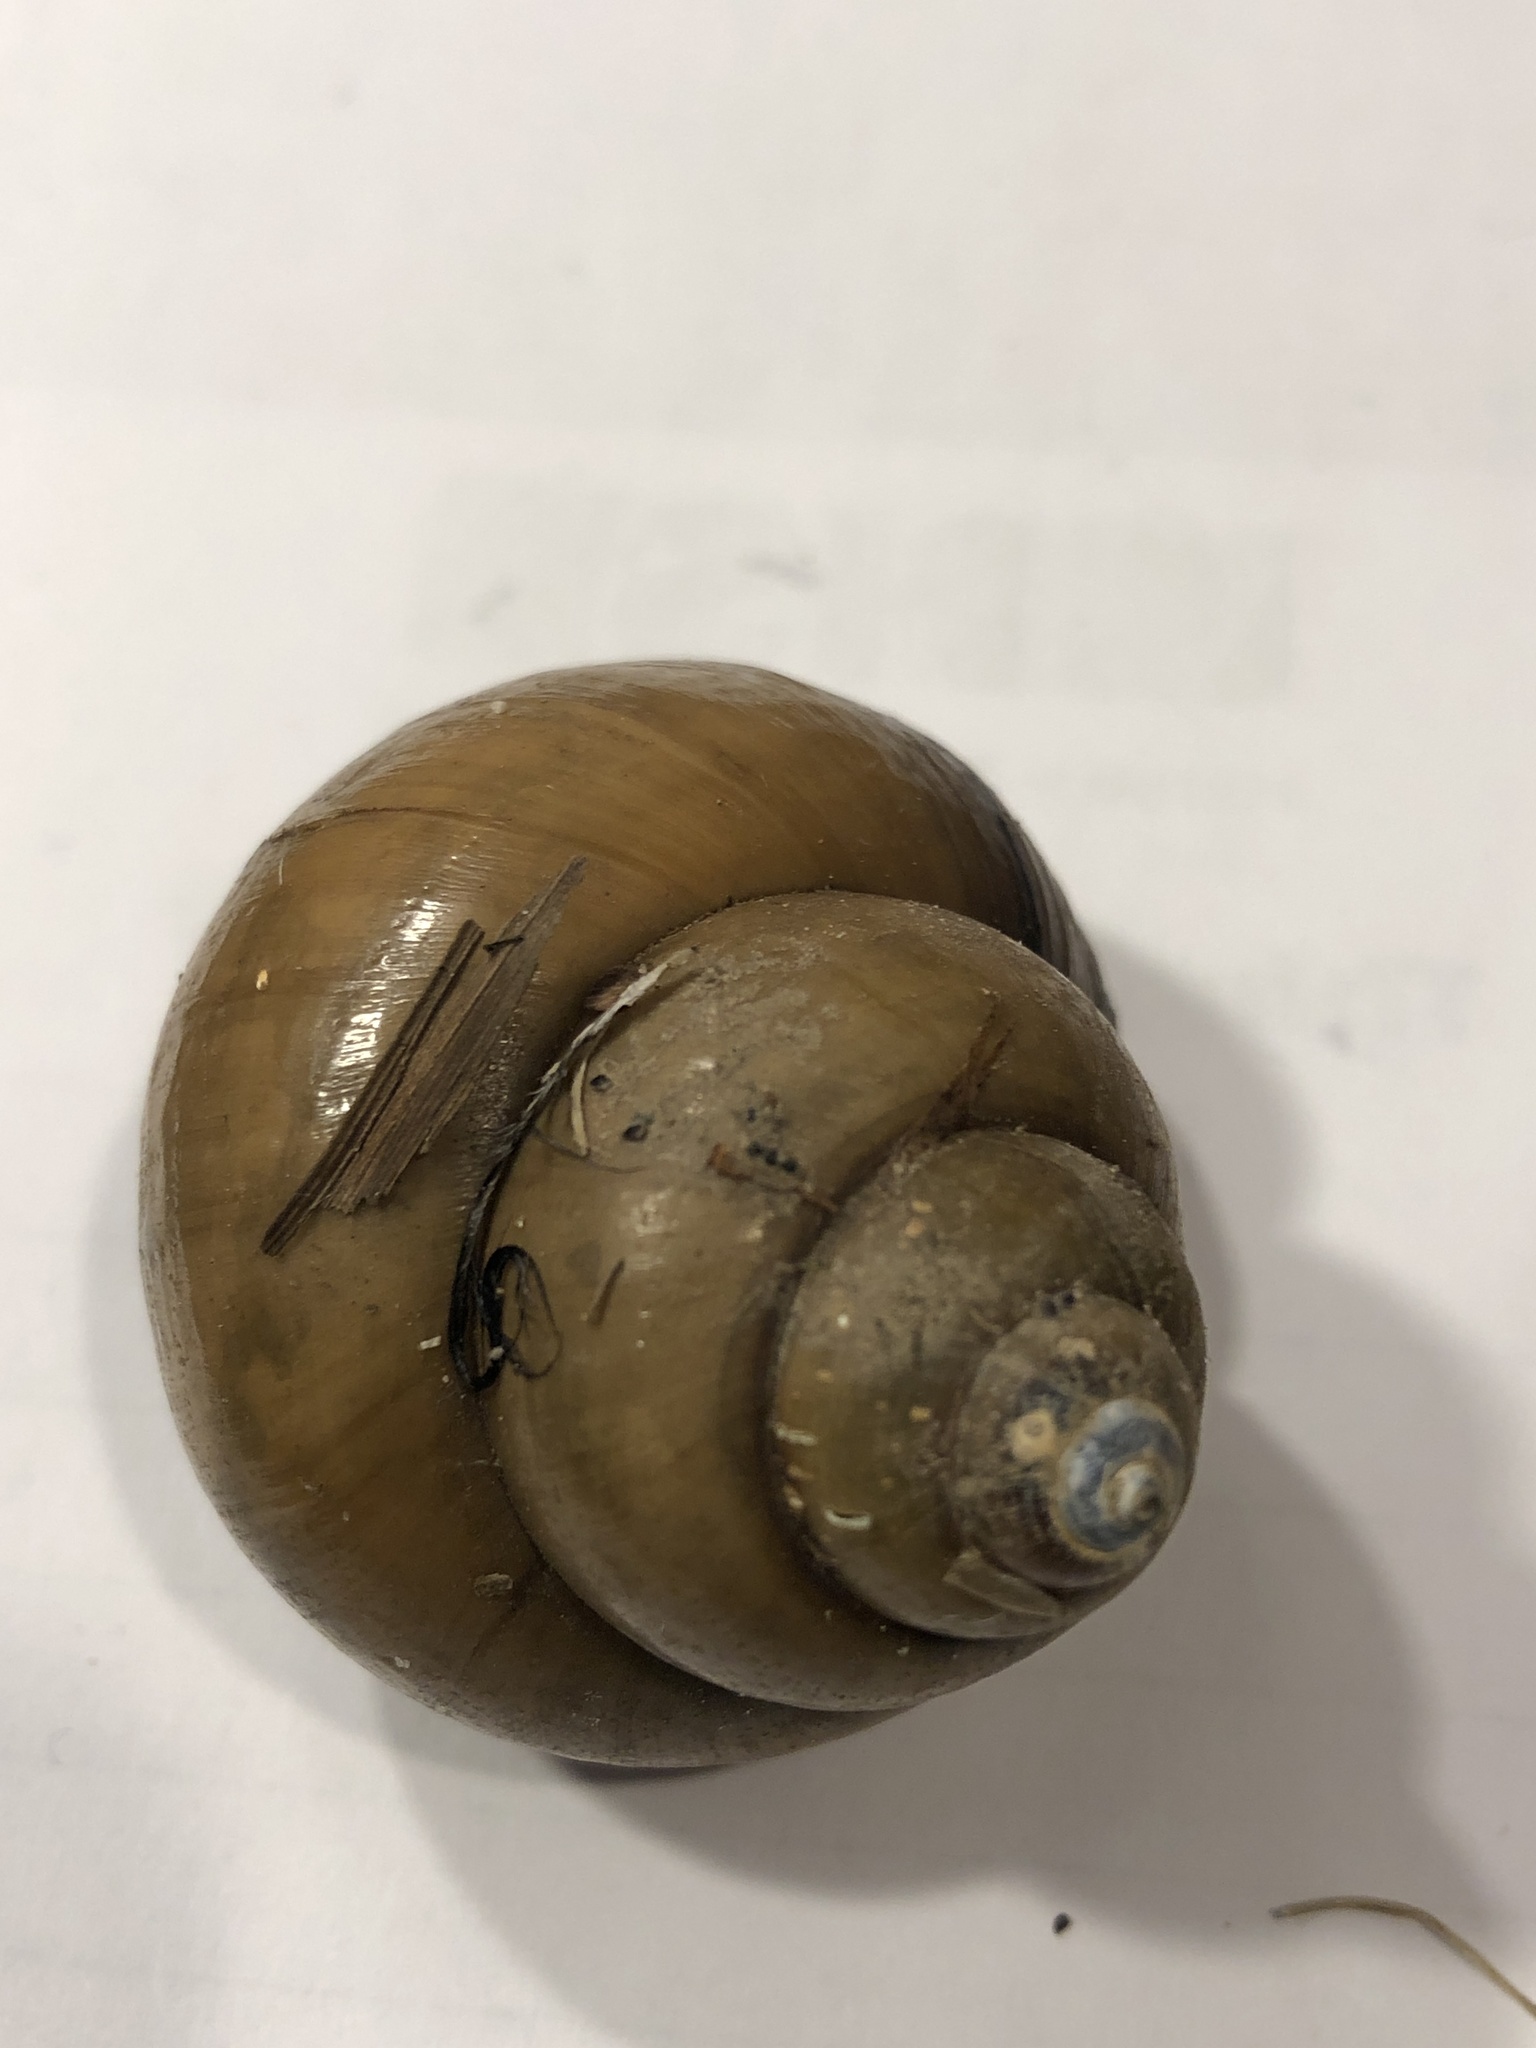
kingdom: Animalia
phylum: Mollusca
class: Gastropoda
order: Architaenioglossa
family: Viviparidae
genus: Cipangopaludina
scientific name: Cipangopaludina chinensis
